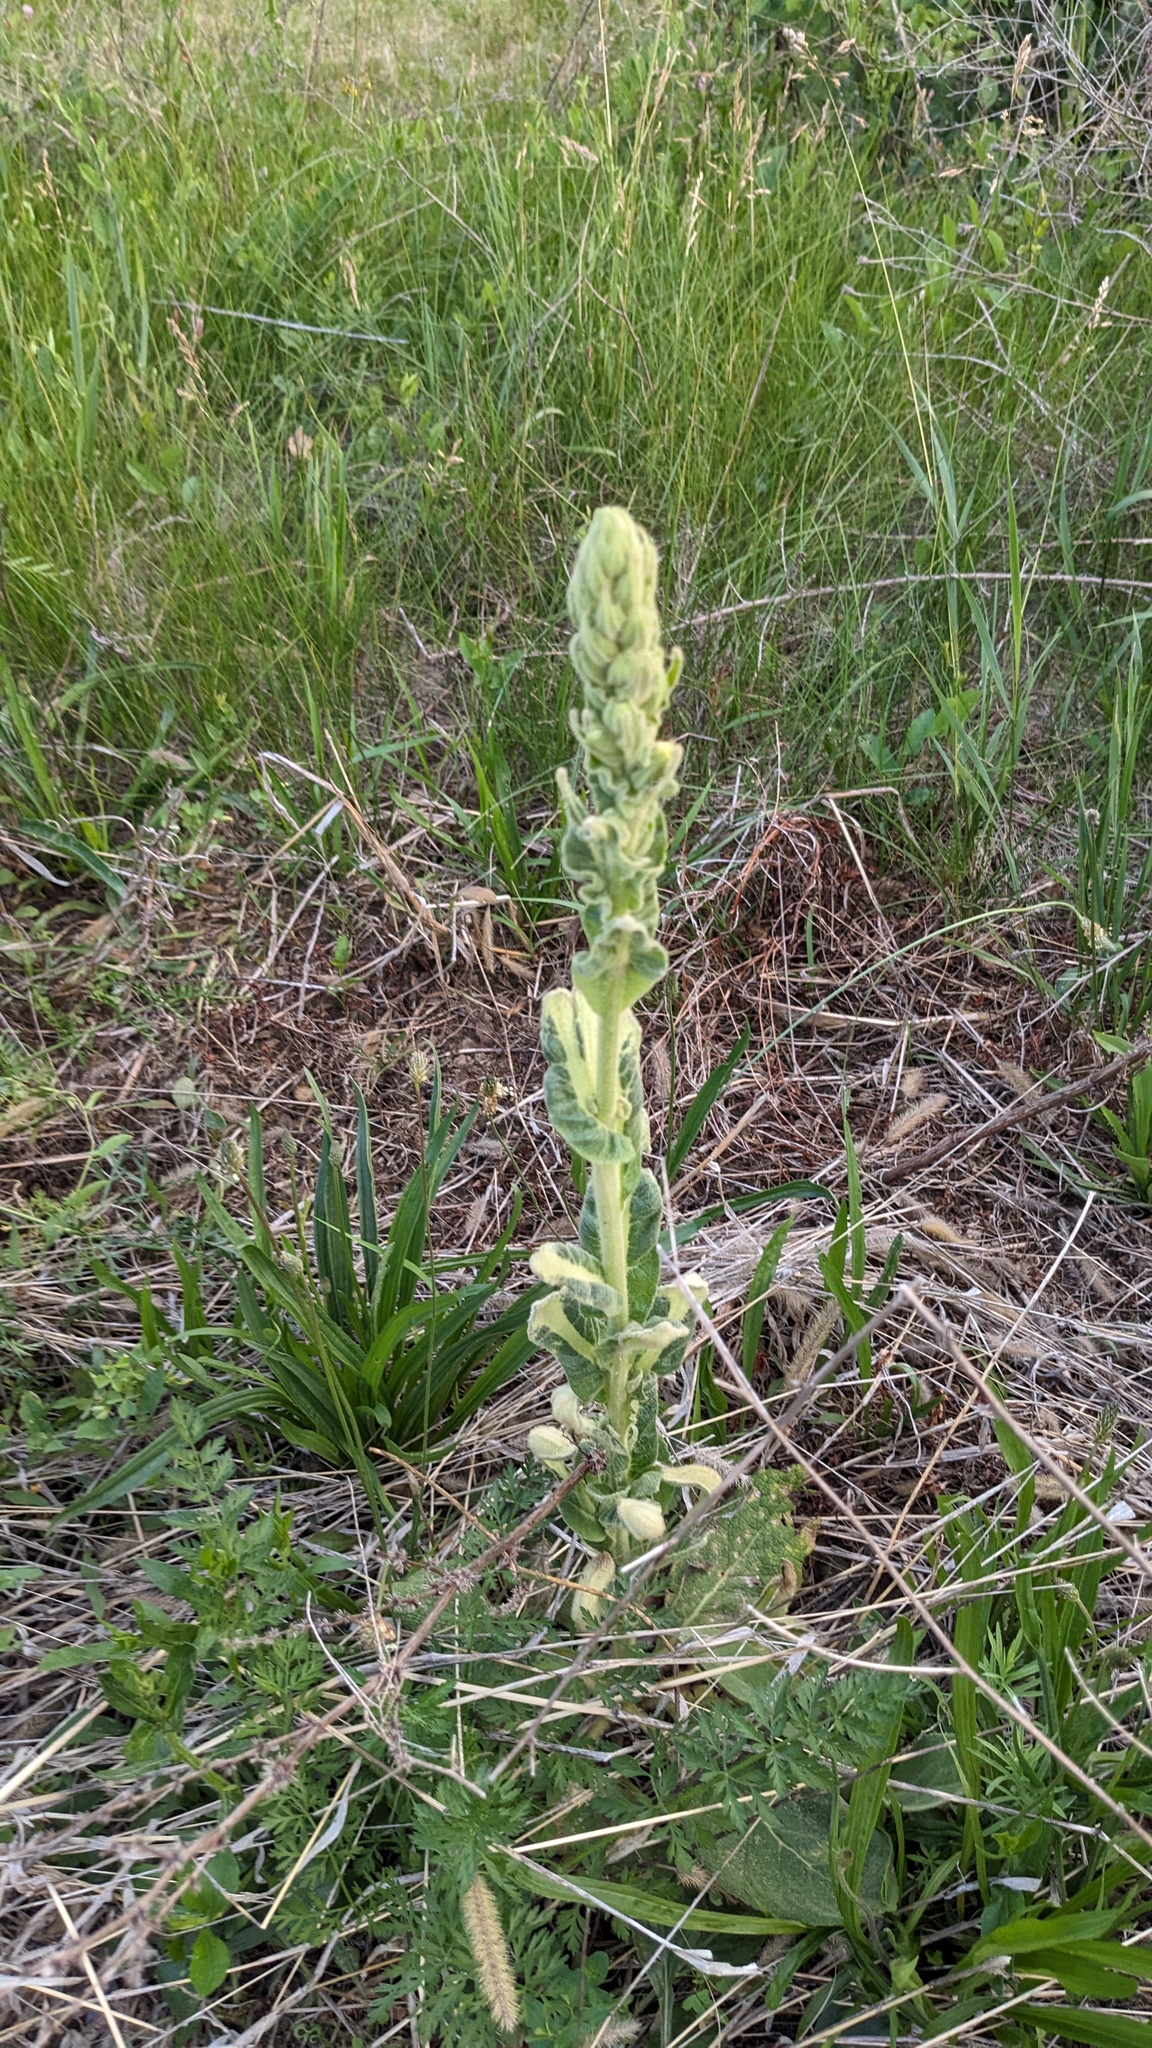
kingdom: Plantae
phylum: Tracheophyta
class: Magnoliopsida
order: Lamiales
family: Scrophulariaceae
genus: Verbascum
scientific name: Verbascum thapsus
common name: Common mullein
